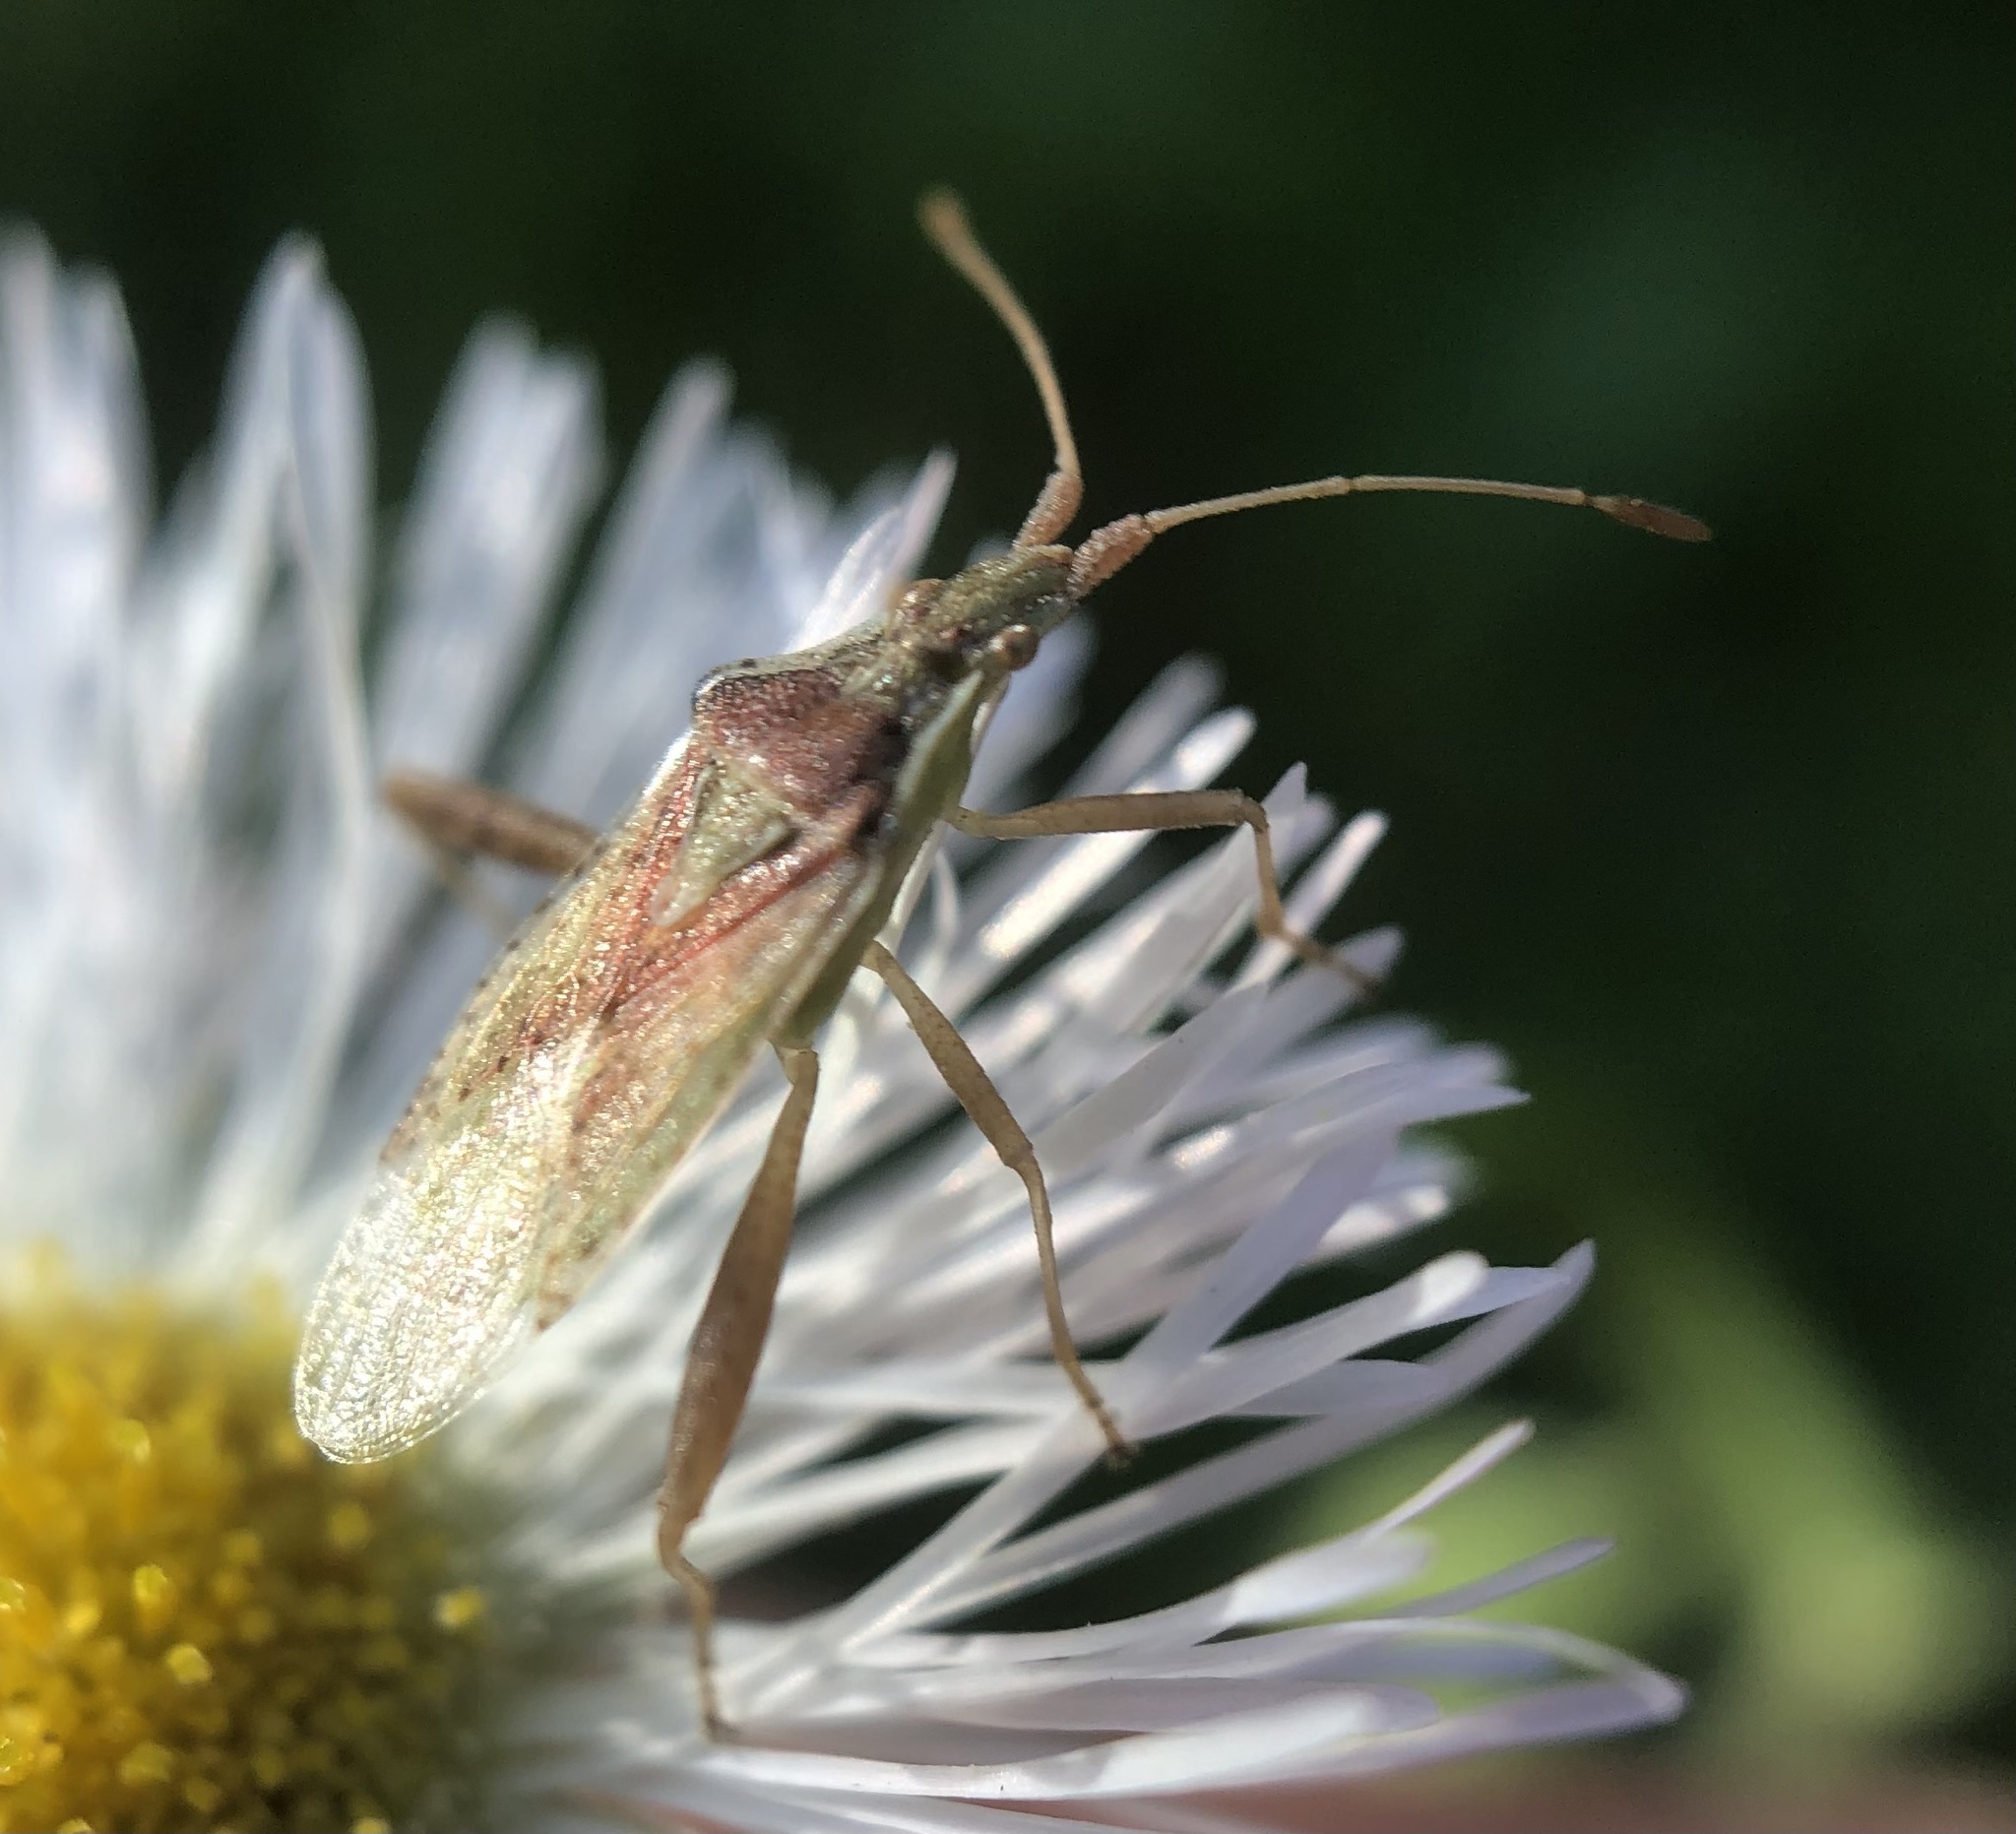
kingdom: Animalia
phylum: Arthropoda
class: Insecta
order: Hemiptera
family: Rhopalidae
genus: Harmostes
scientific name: Harmostes reflexulus
